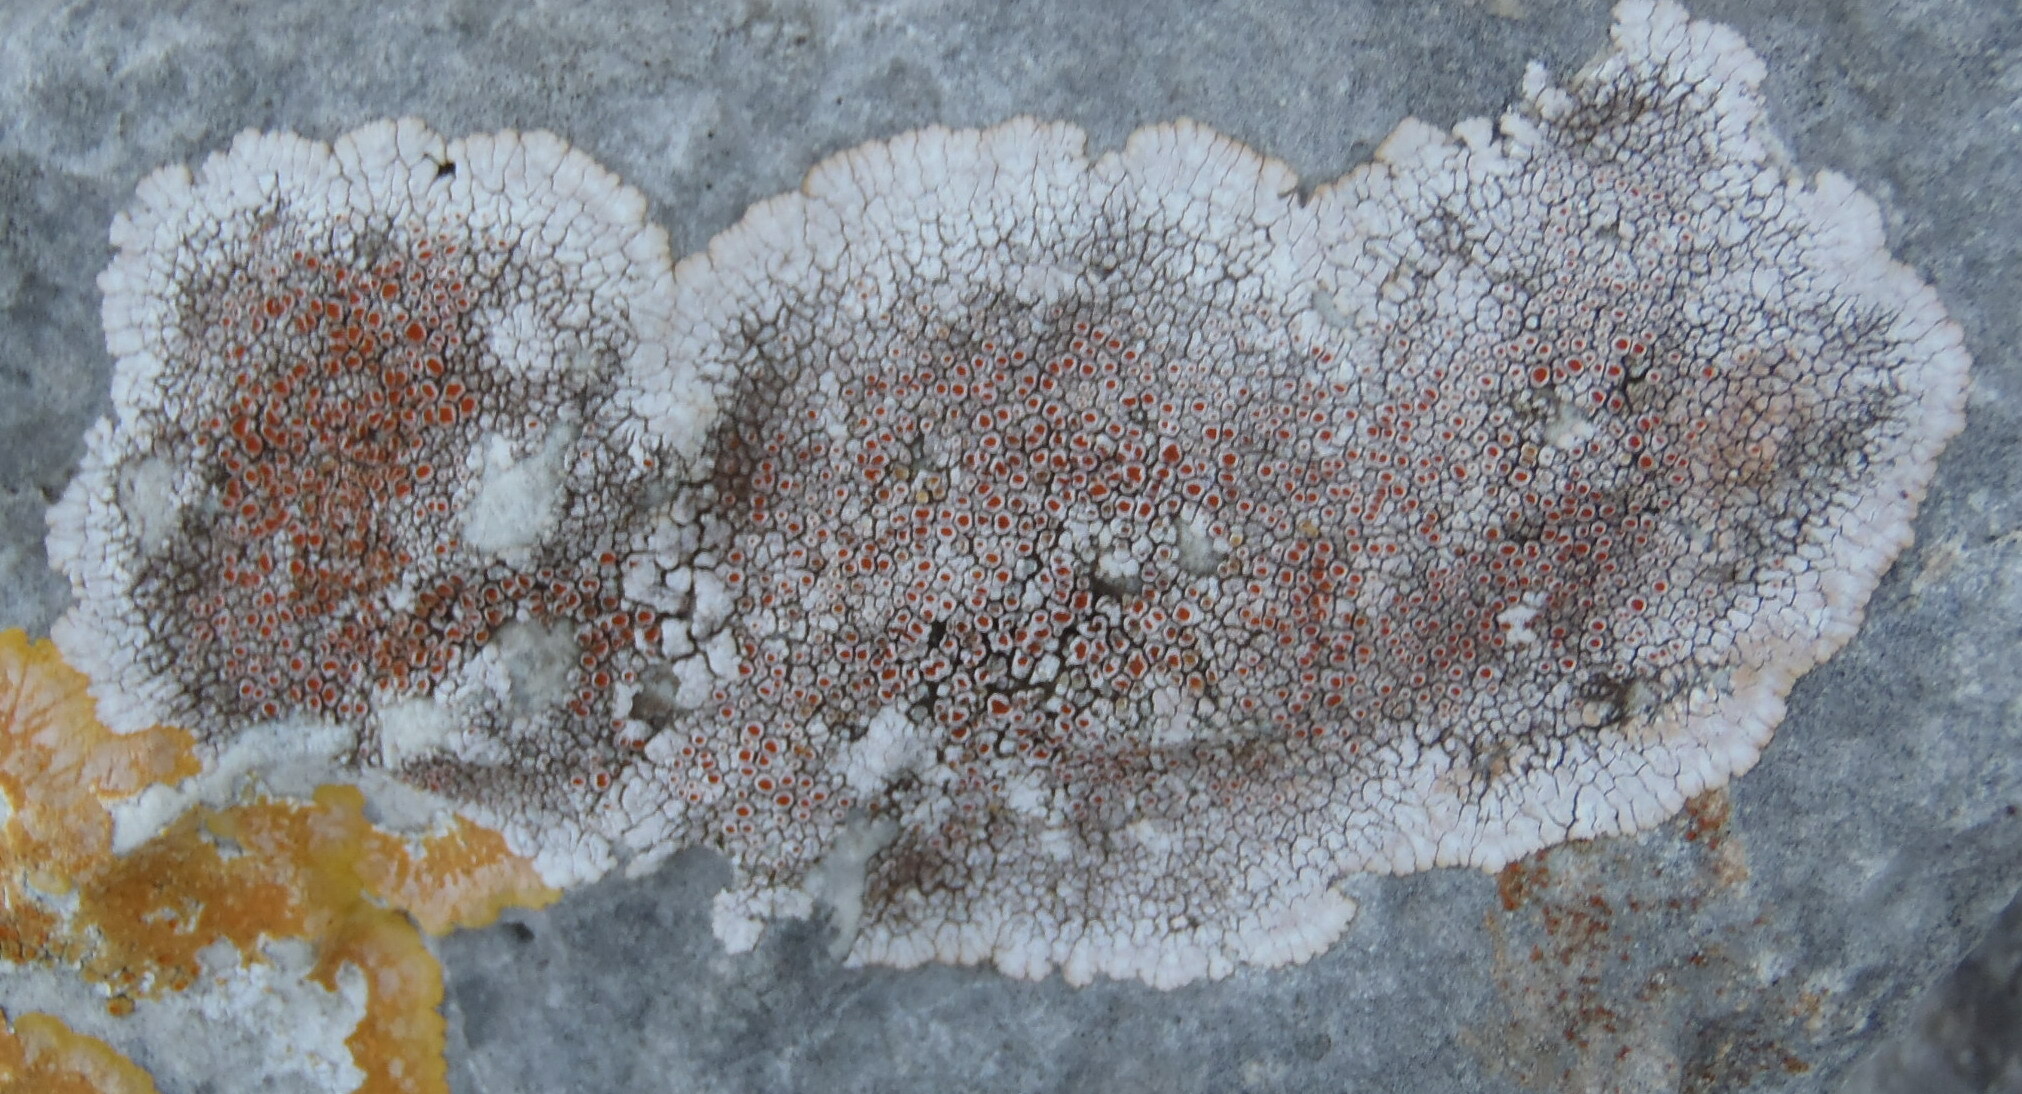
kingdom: Fungi
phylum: Ascomycota
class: Lecanoromycetes
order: Teloschistales
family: Teloschistaceae
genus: Squamulea
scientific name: Squamulea galactophylla
